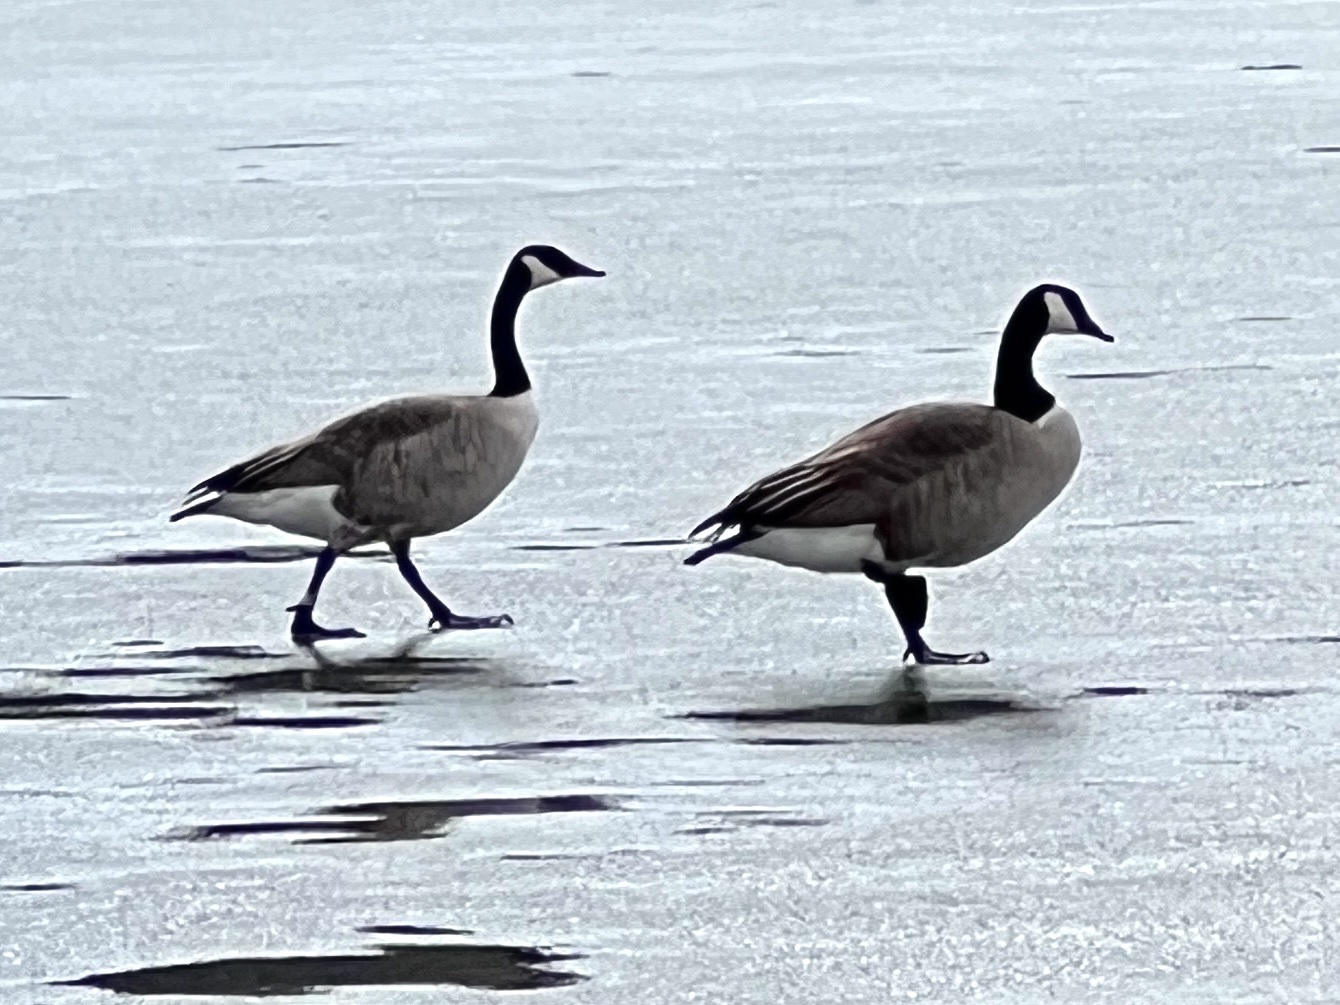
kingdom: Animalia
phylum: Chordata
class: Aves
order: Anseriformes
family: Anatidae
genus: Branta
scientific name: Branta canadensis
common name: Canada goose
